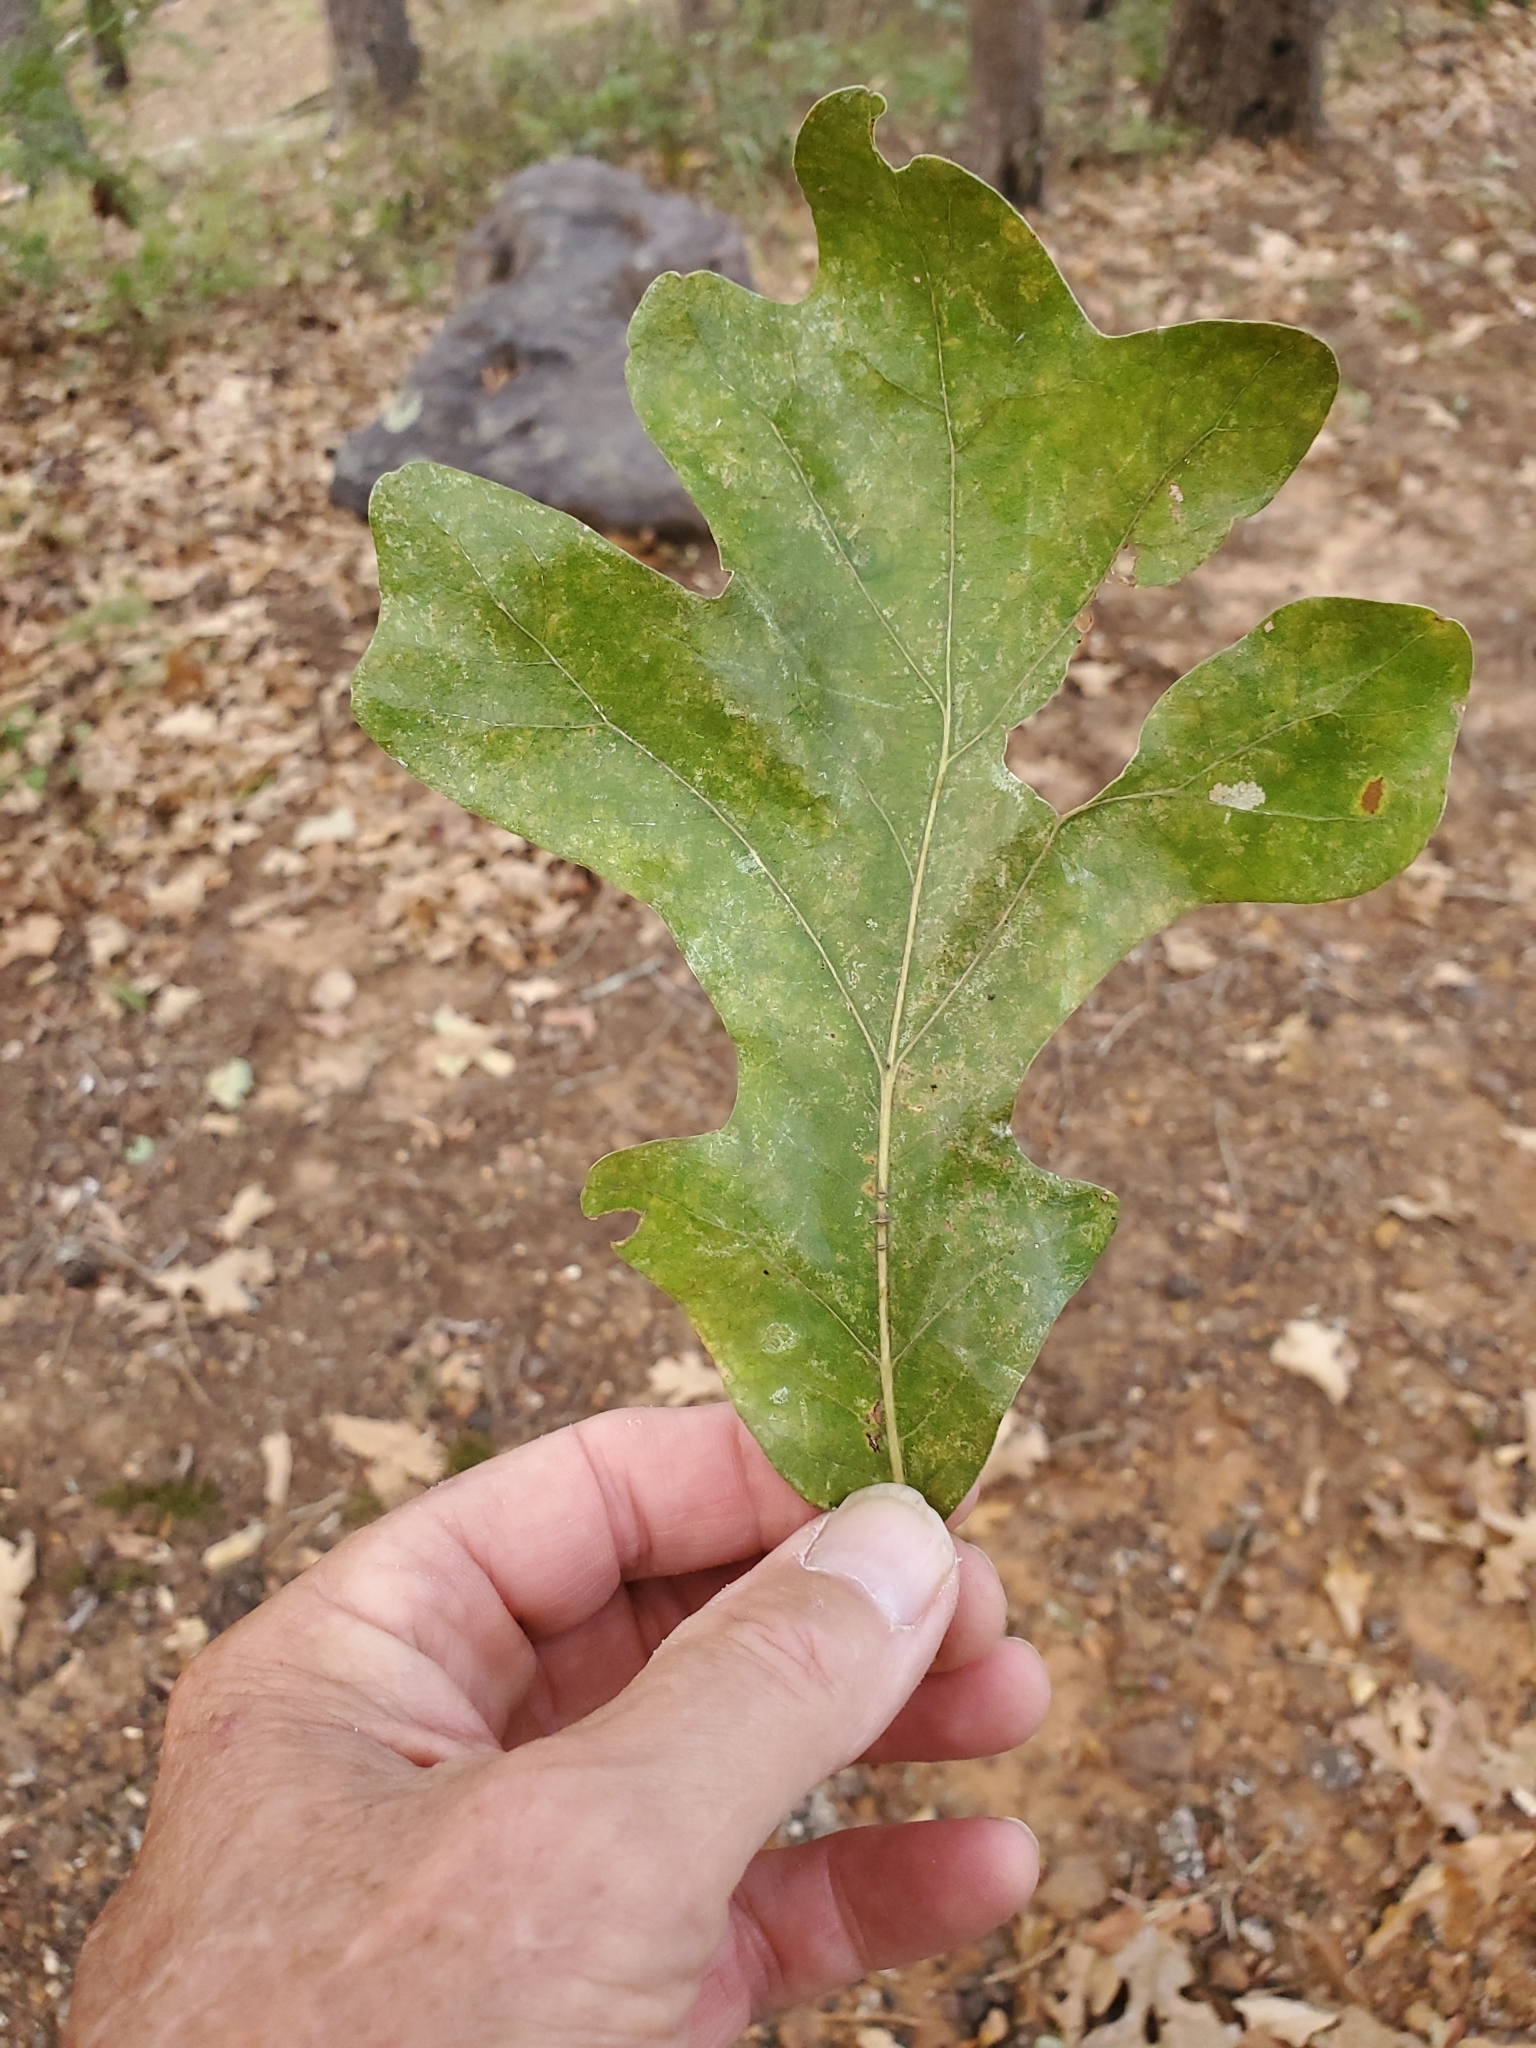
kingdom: Plantae
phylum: Tracheophyta
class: Magnoliopsida
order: Fagales
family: Fagaceae
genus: Quercus
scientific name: Quercus stellata
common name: Post oak
